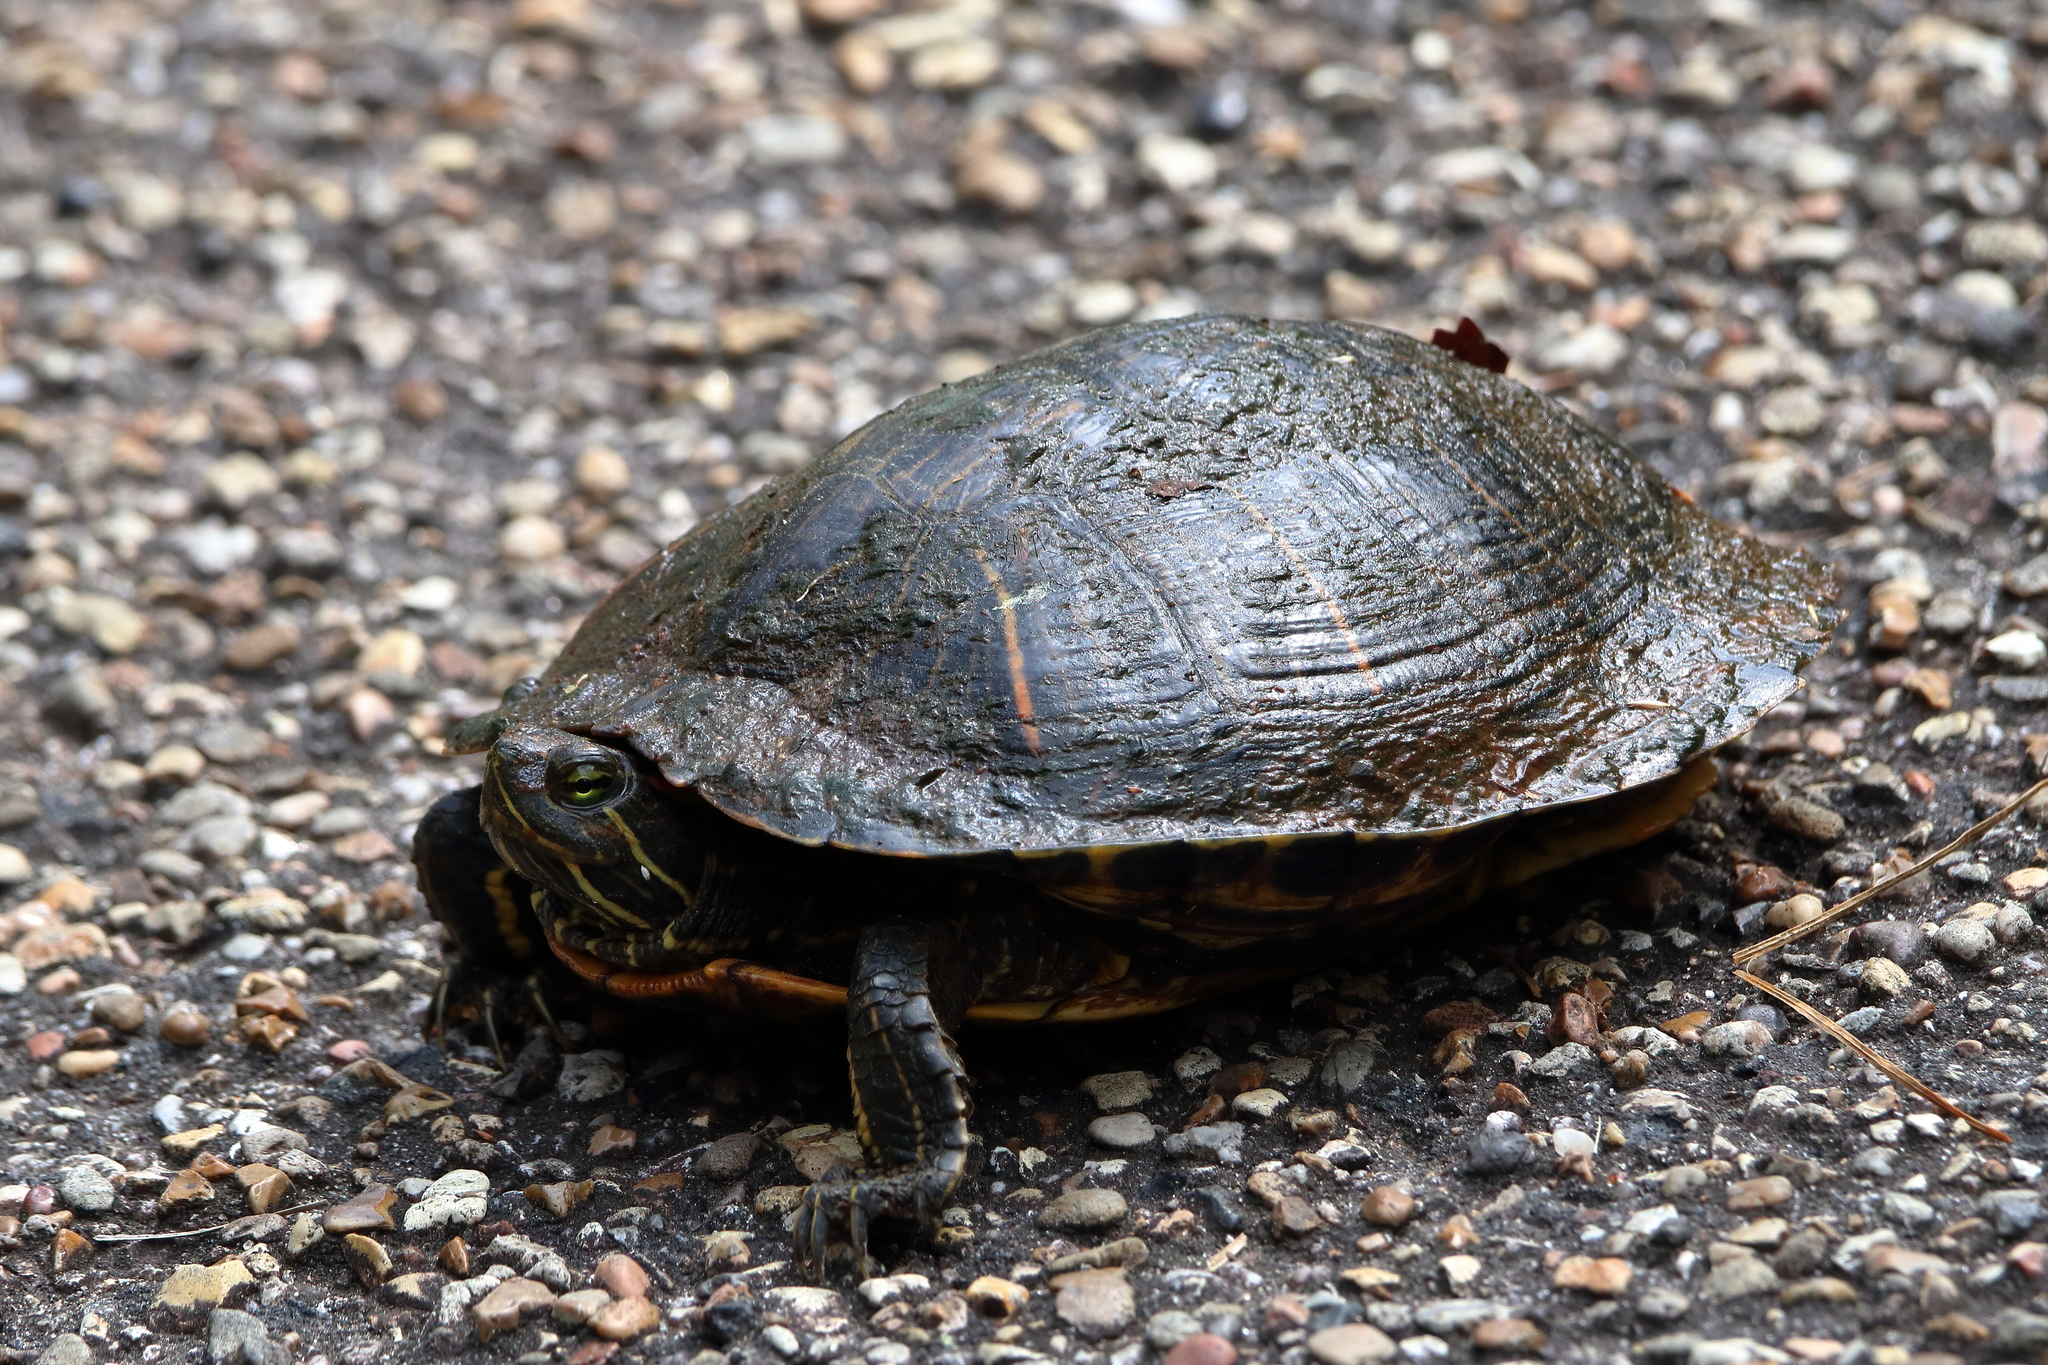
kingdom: Animalia
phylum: Chordata
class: Testudines
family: Emydidae
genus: Trachemys
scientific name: Trachemys scripta
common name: Slider
